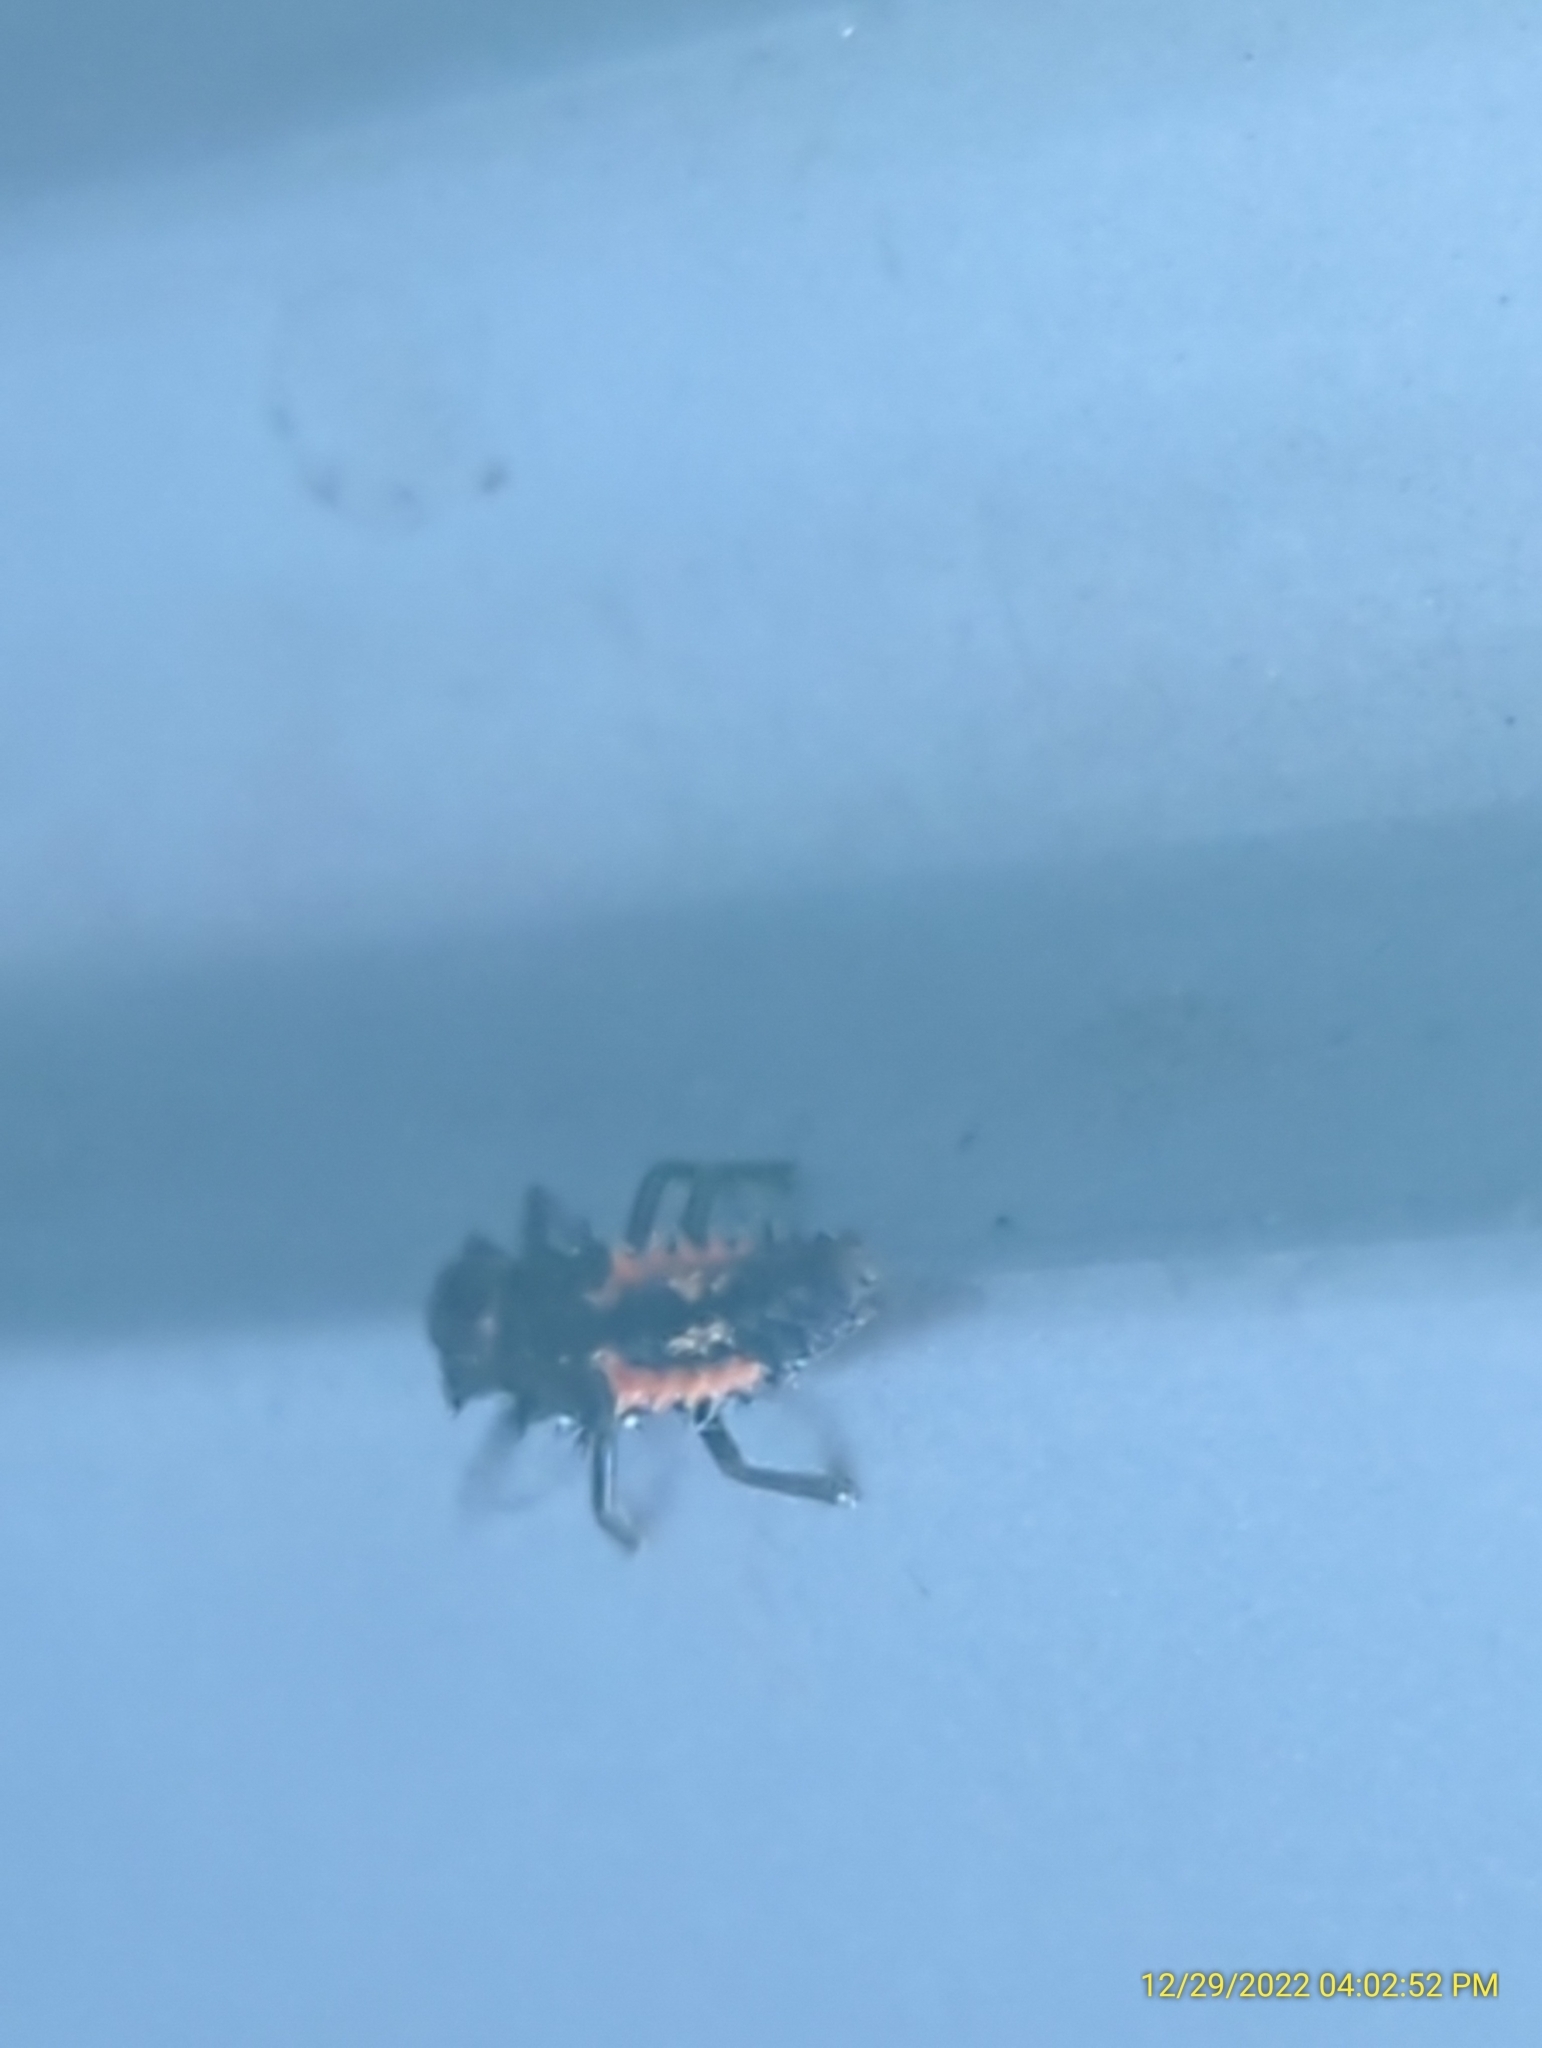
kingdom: Animalia
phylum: Arthropoda
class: Insecta
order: Coleoptera
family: Coccinellidae
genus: Harmonia
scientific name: Harmonia axyridis
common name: Harlequin ladybird
